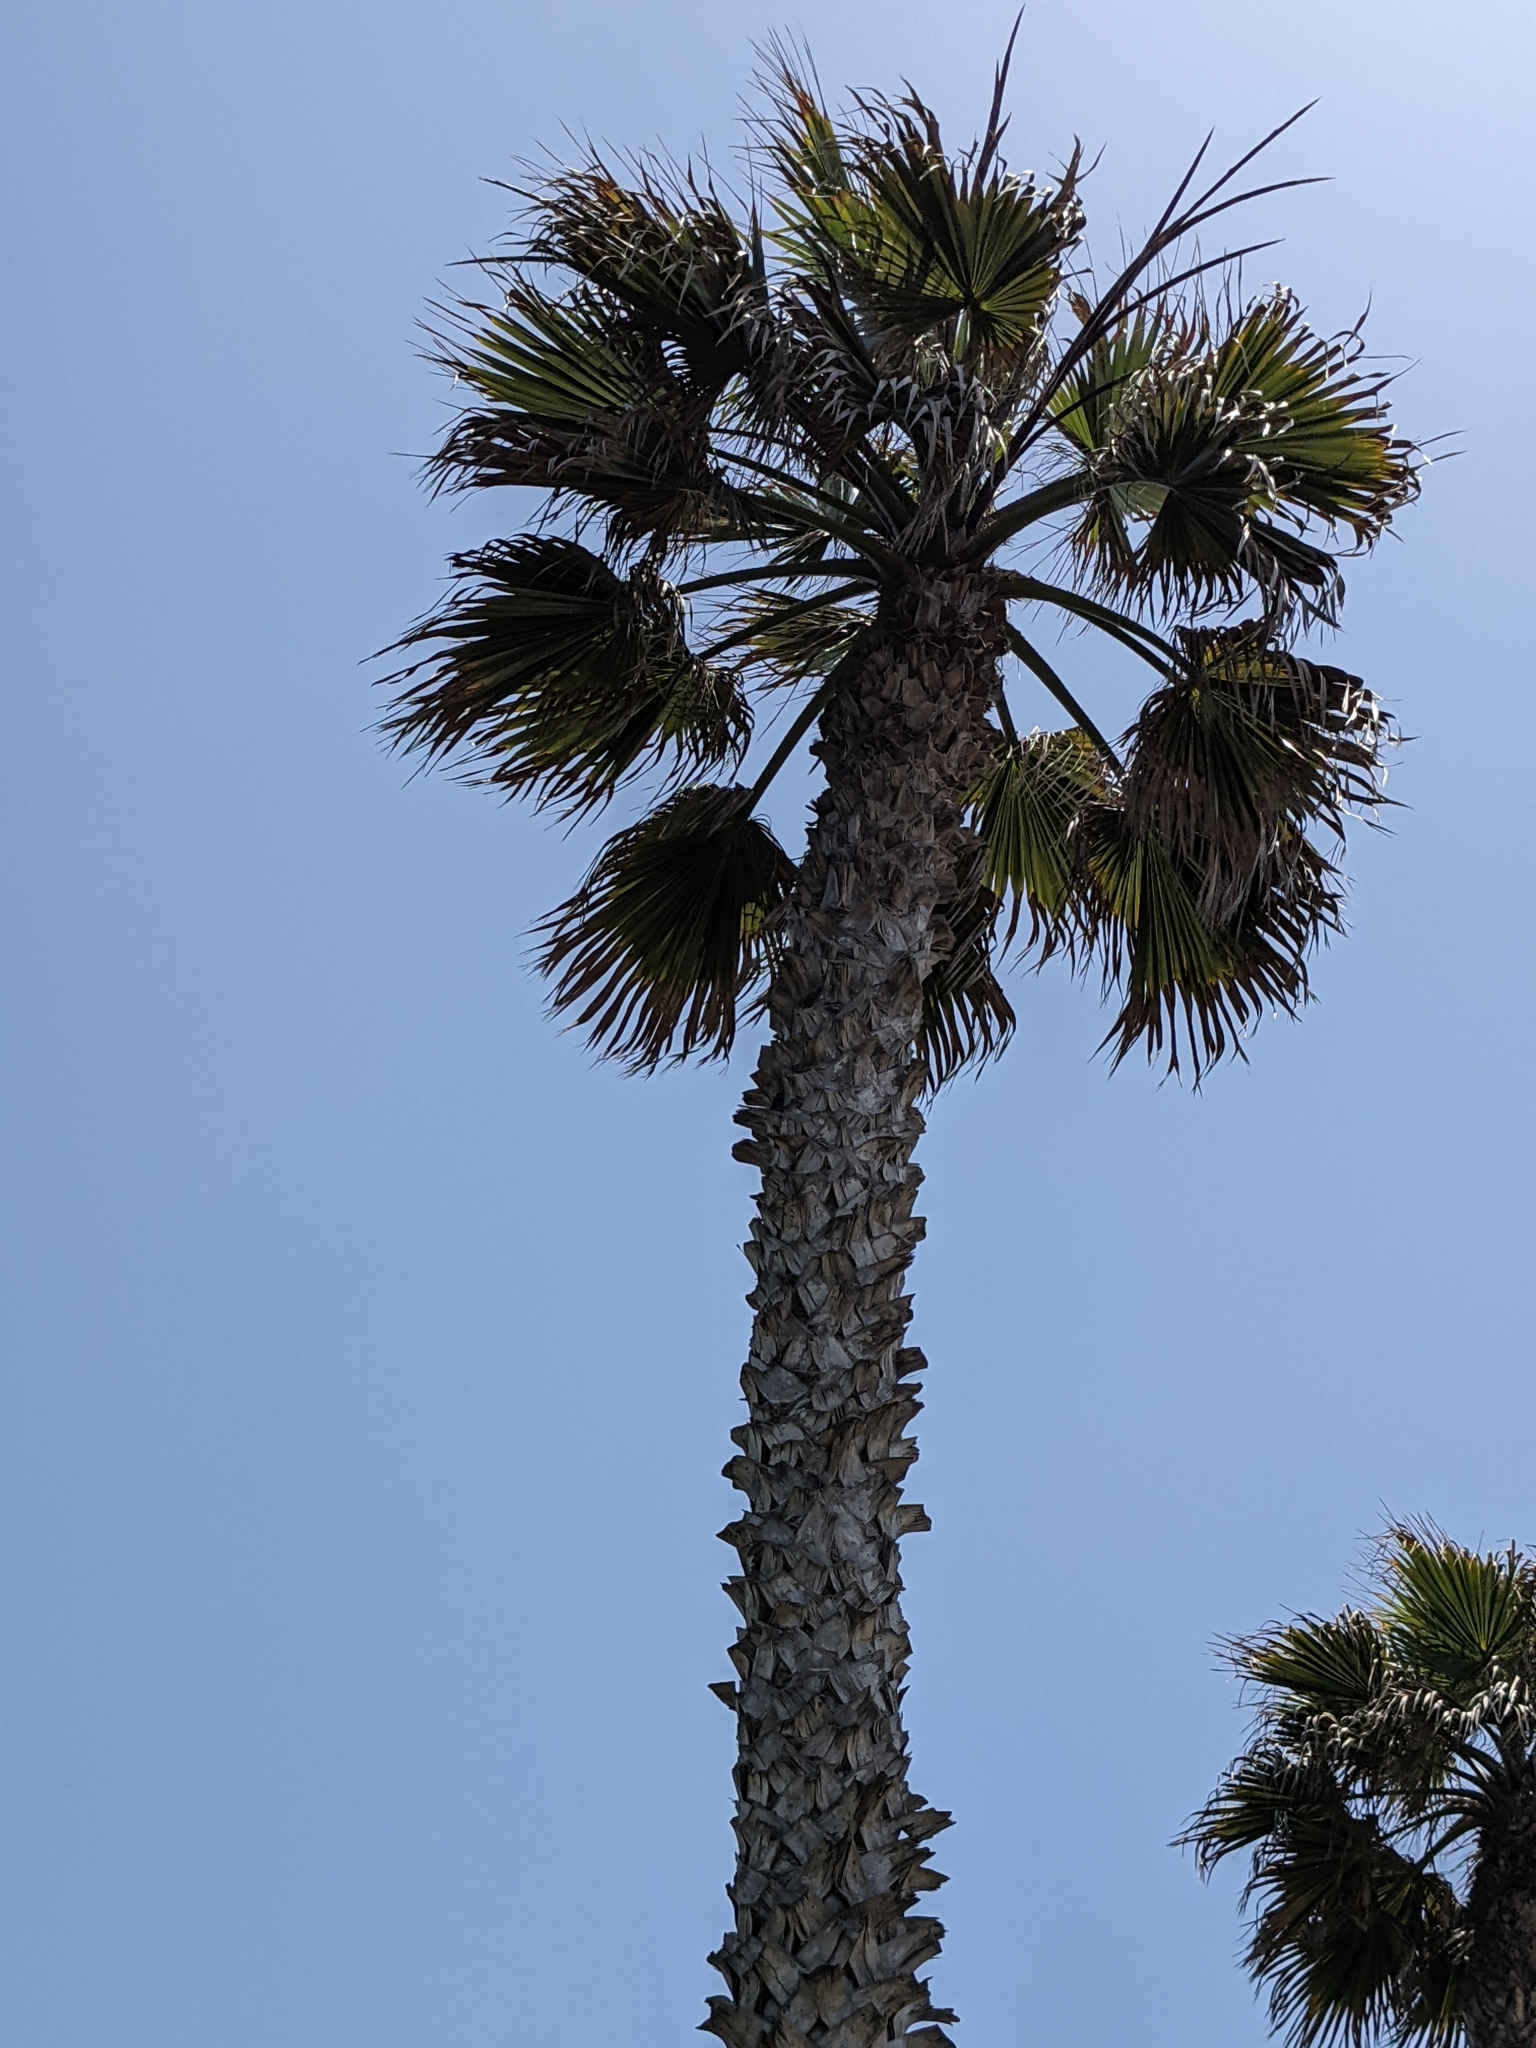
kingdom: Plantae
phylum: Tracheophyta
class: Liliopsida
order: Arecales
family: Arecaceae
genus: Washingtonia
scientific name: Washingtonia robusta
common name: Mexican fan palm
